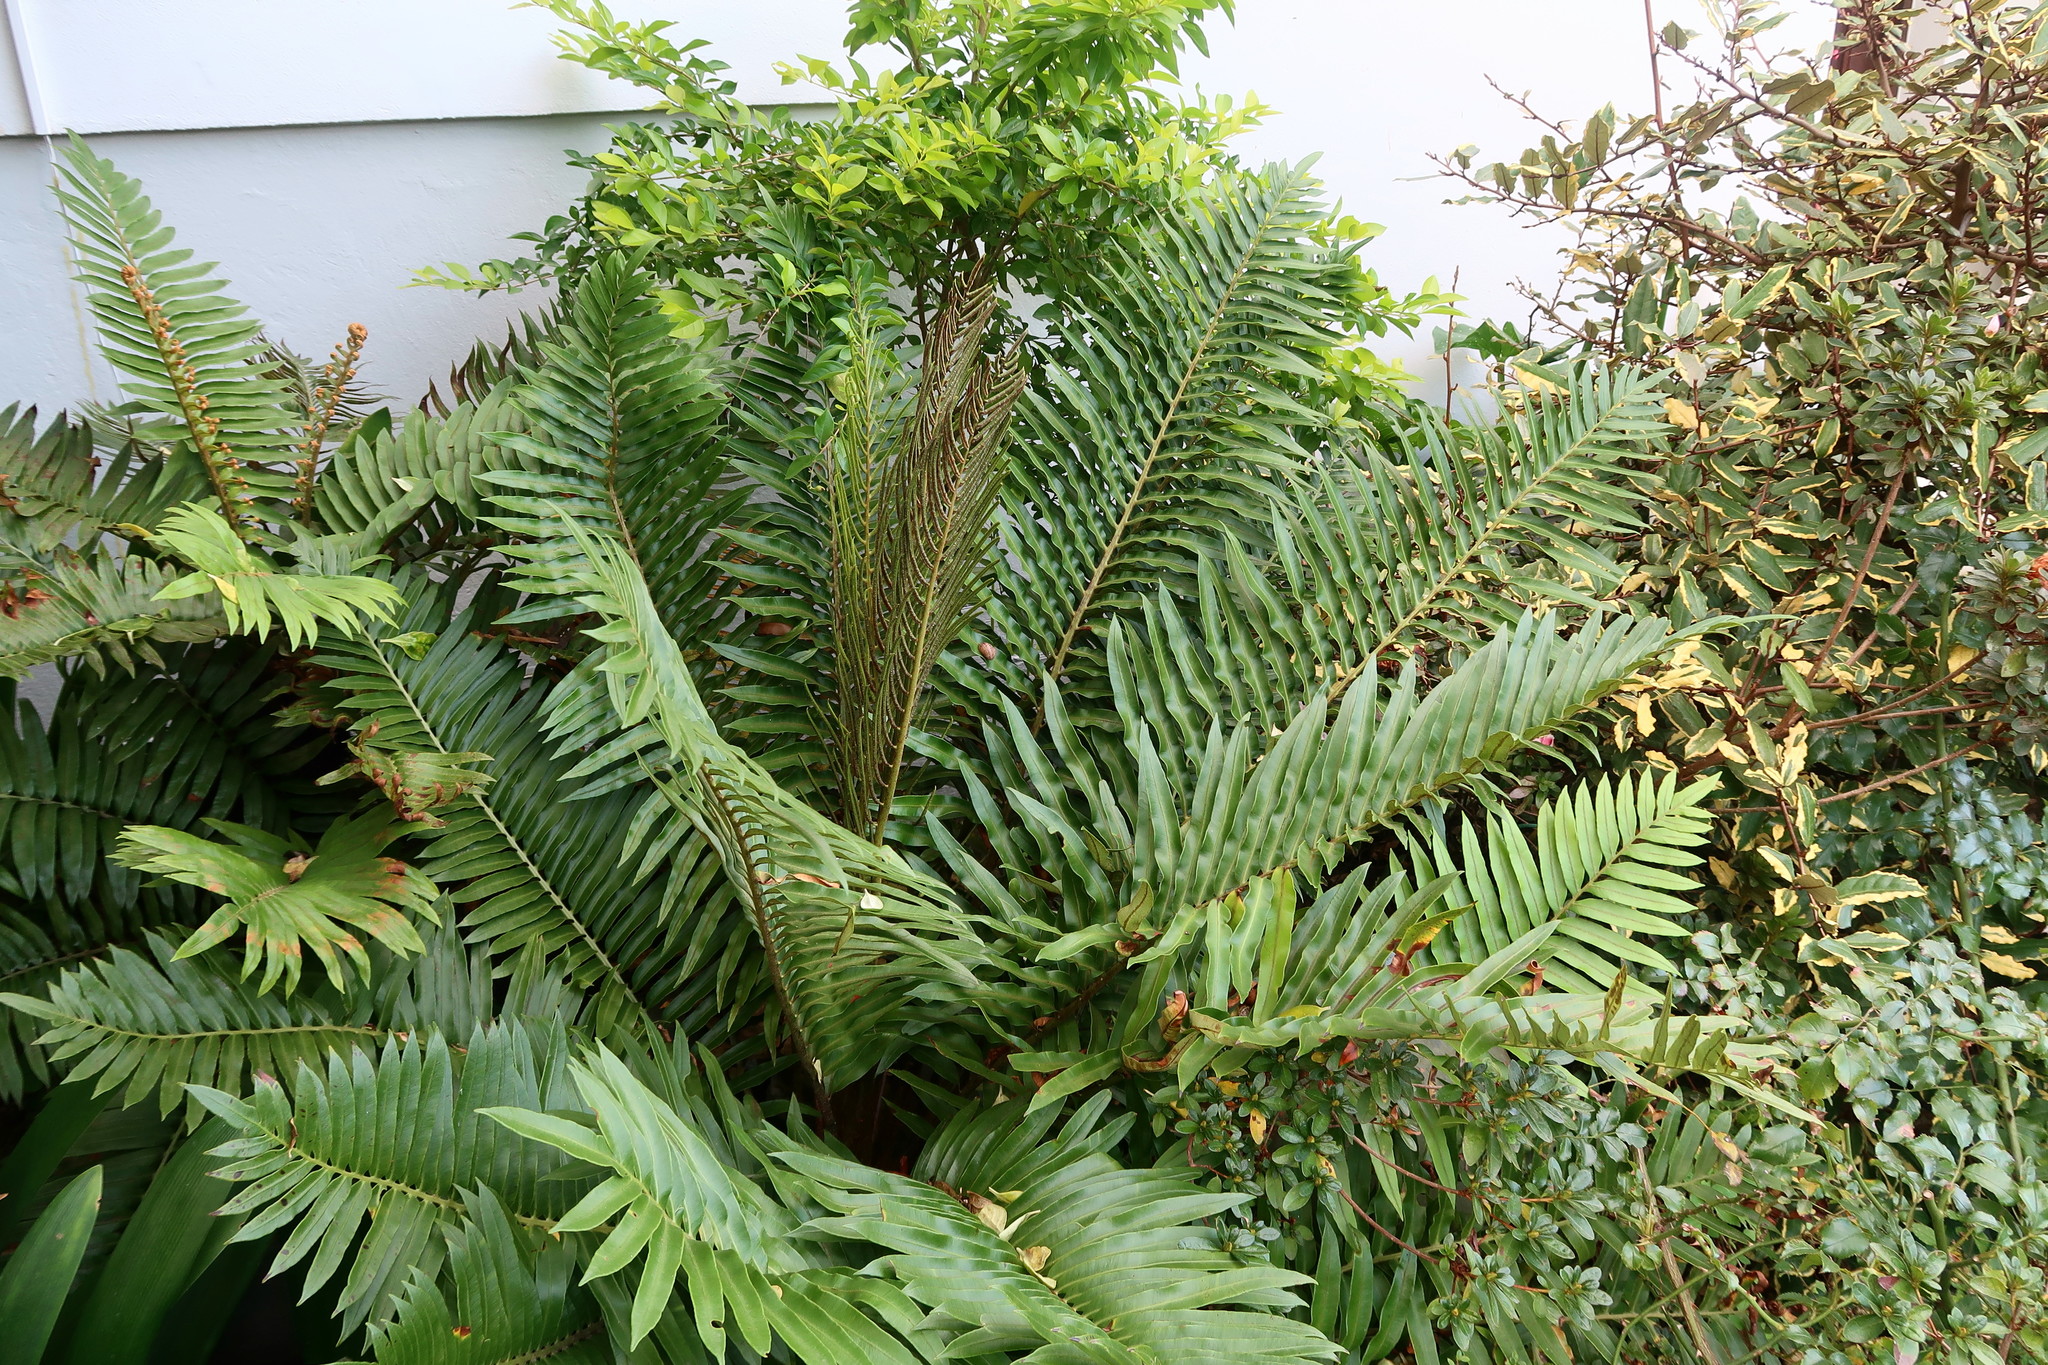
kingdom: Plantae
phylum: Tracheophyta
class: Polypodiopsida
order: Polypodiales
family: Blechnaceae
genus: Lomariocycas
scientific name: Lomariocycas tabularis
